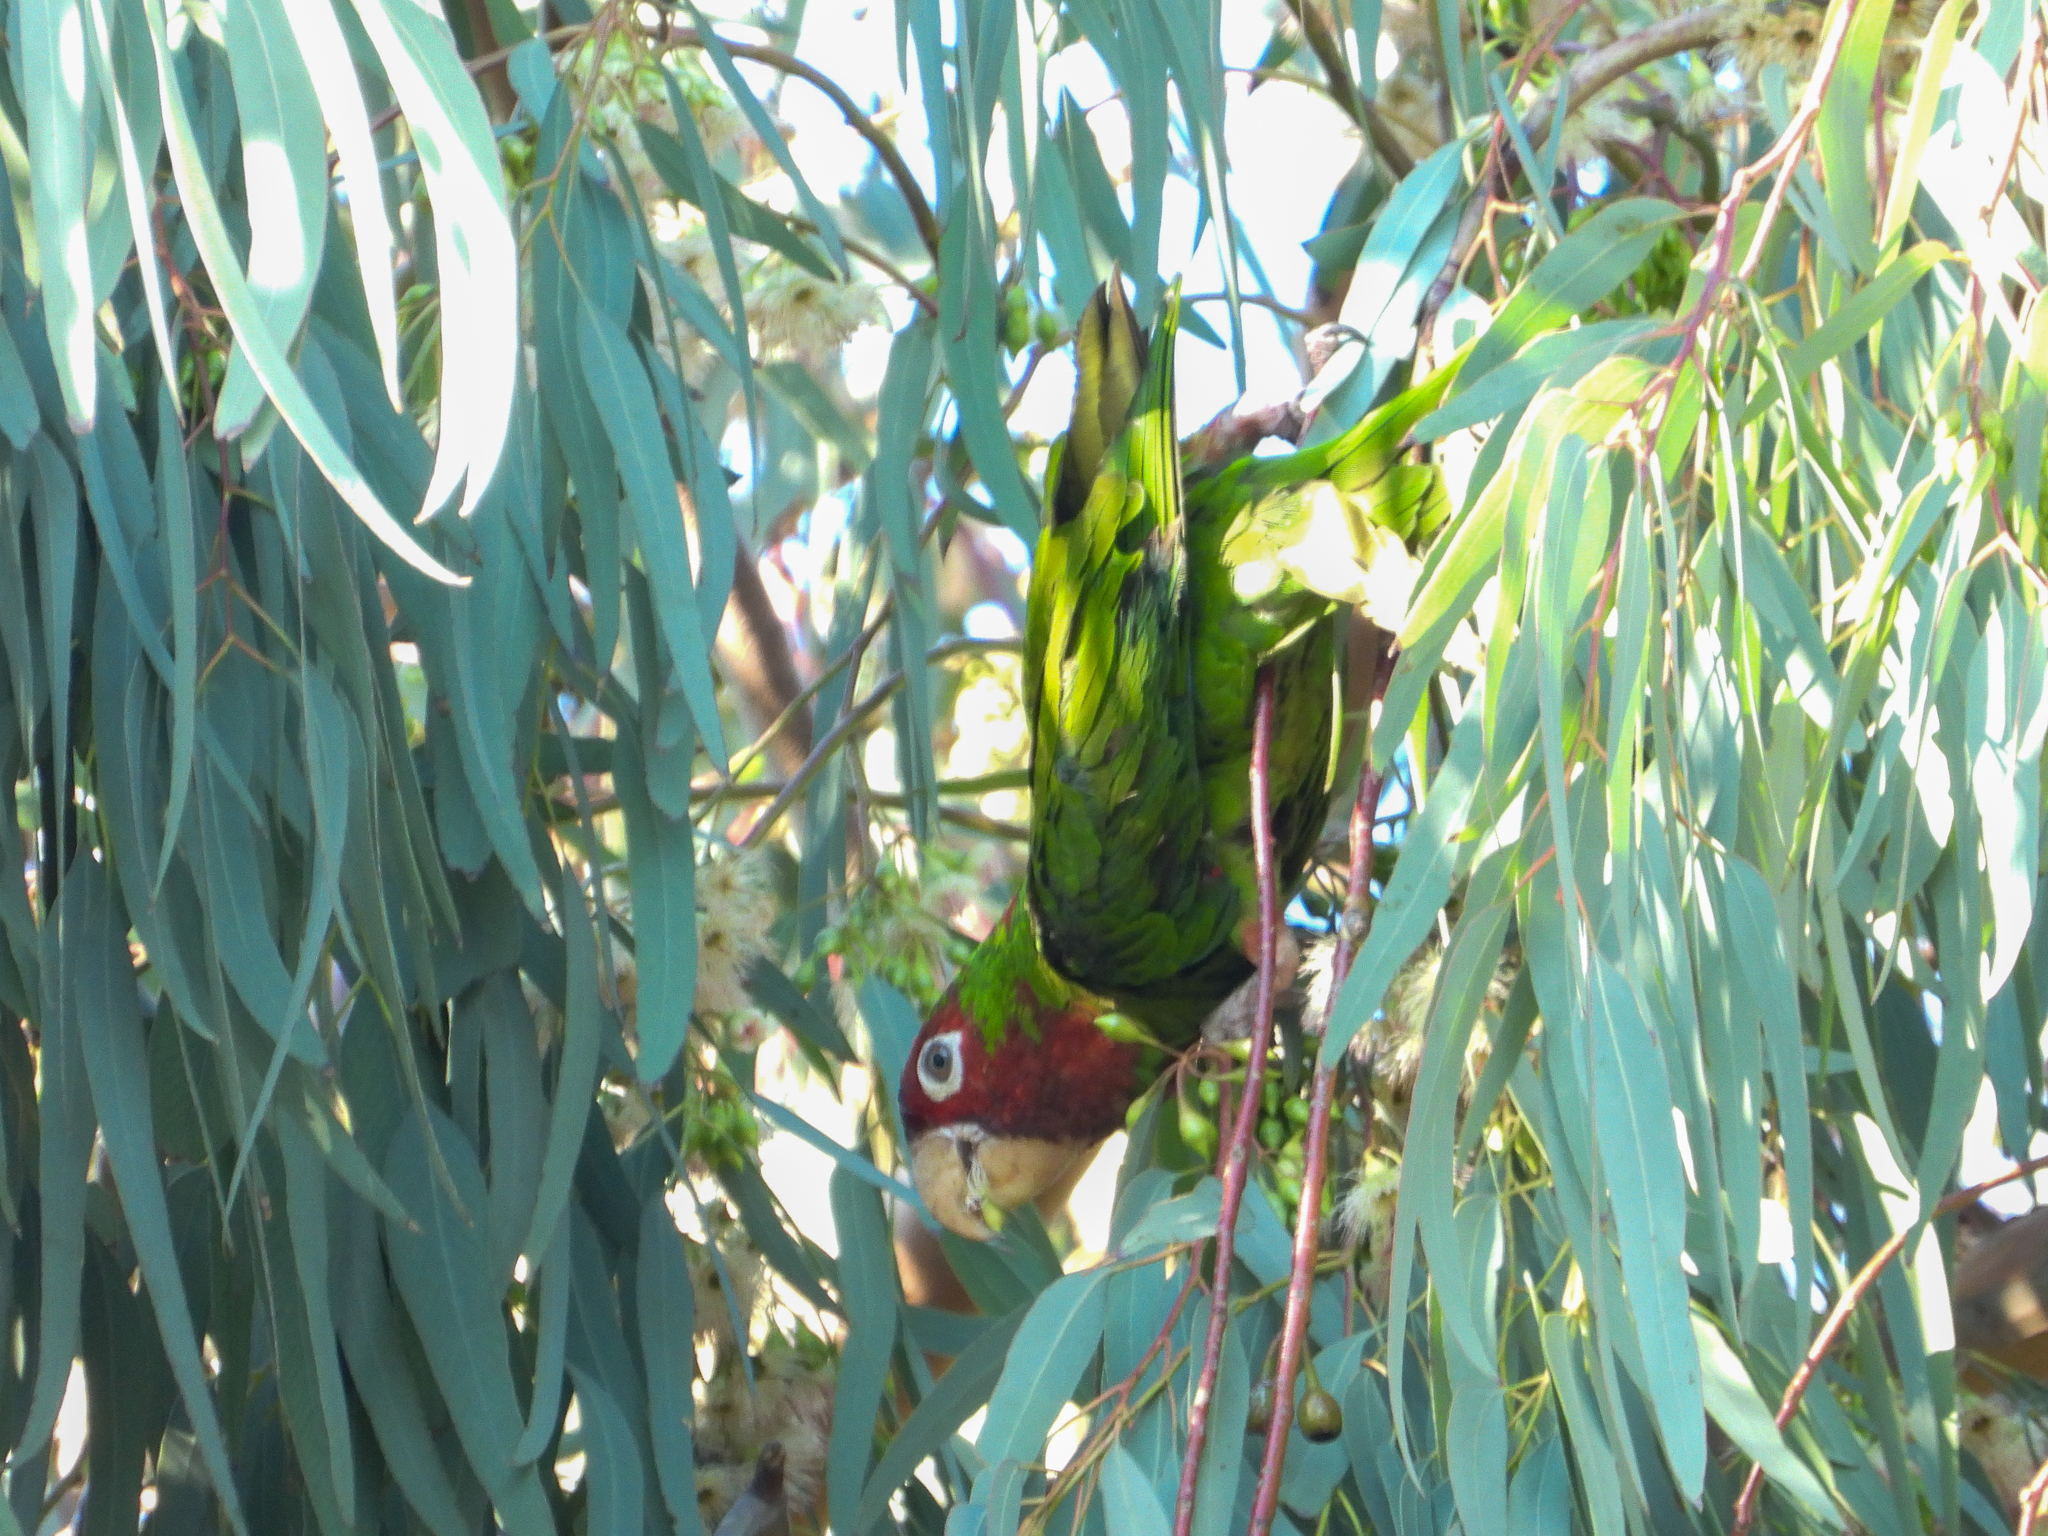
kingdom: Animalia
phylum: Chordata
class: Aves
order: Psittaciformes
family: Psittacidae
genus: Aratinga
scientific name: Aratinga mitrata
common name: Mitred parakeet
